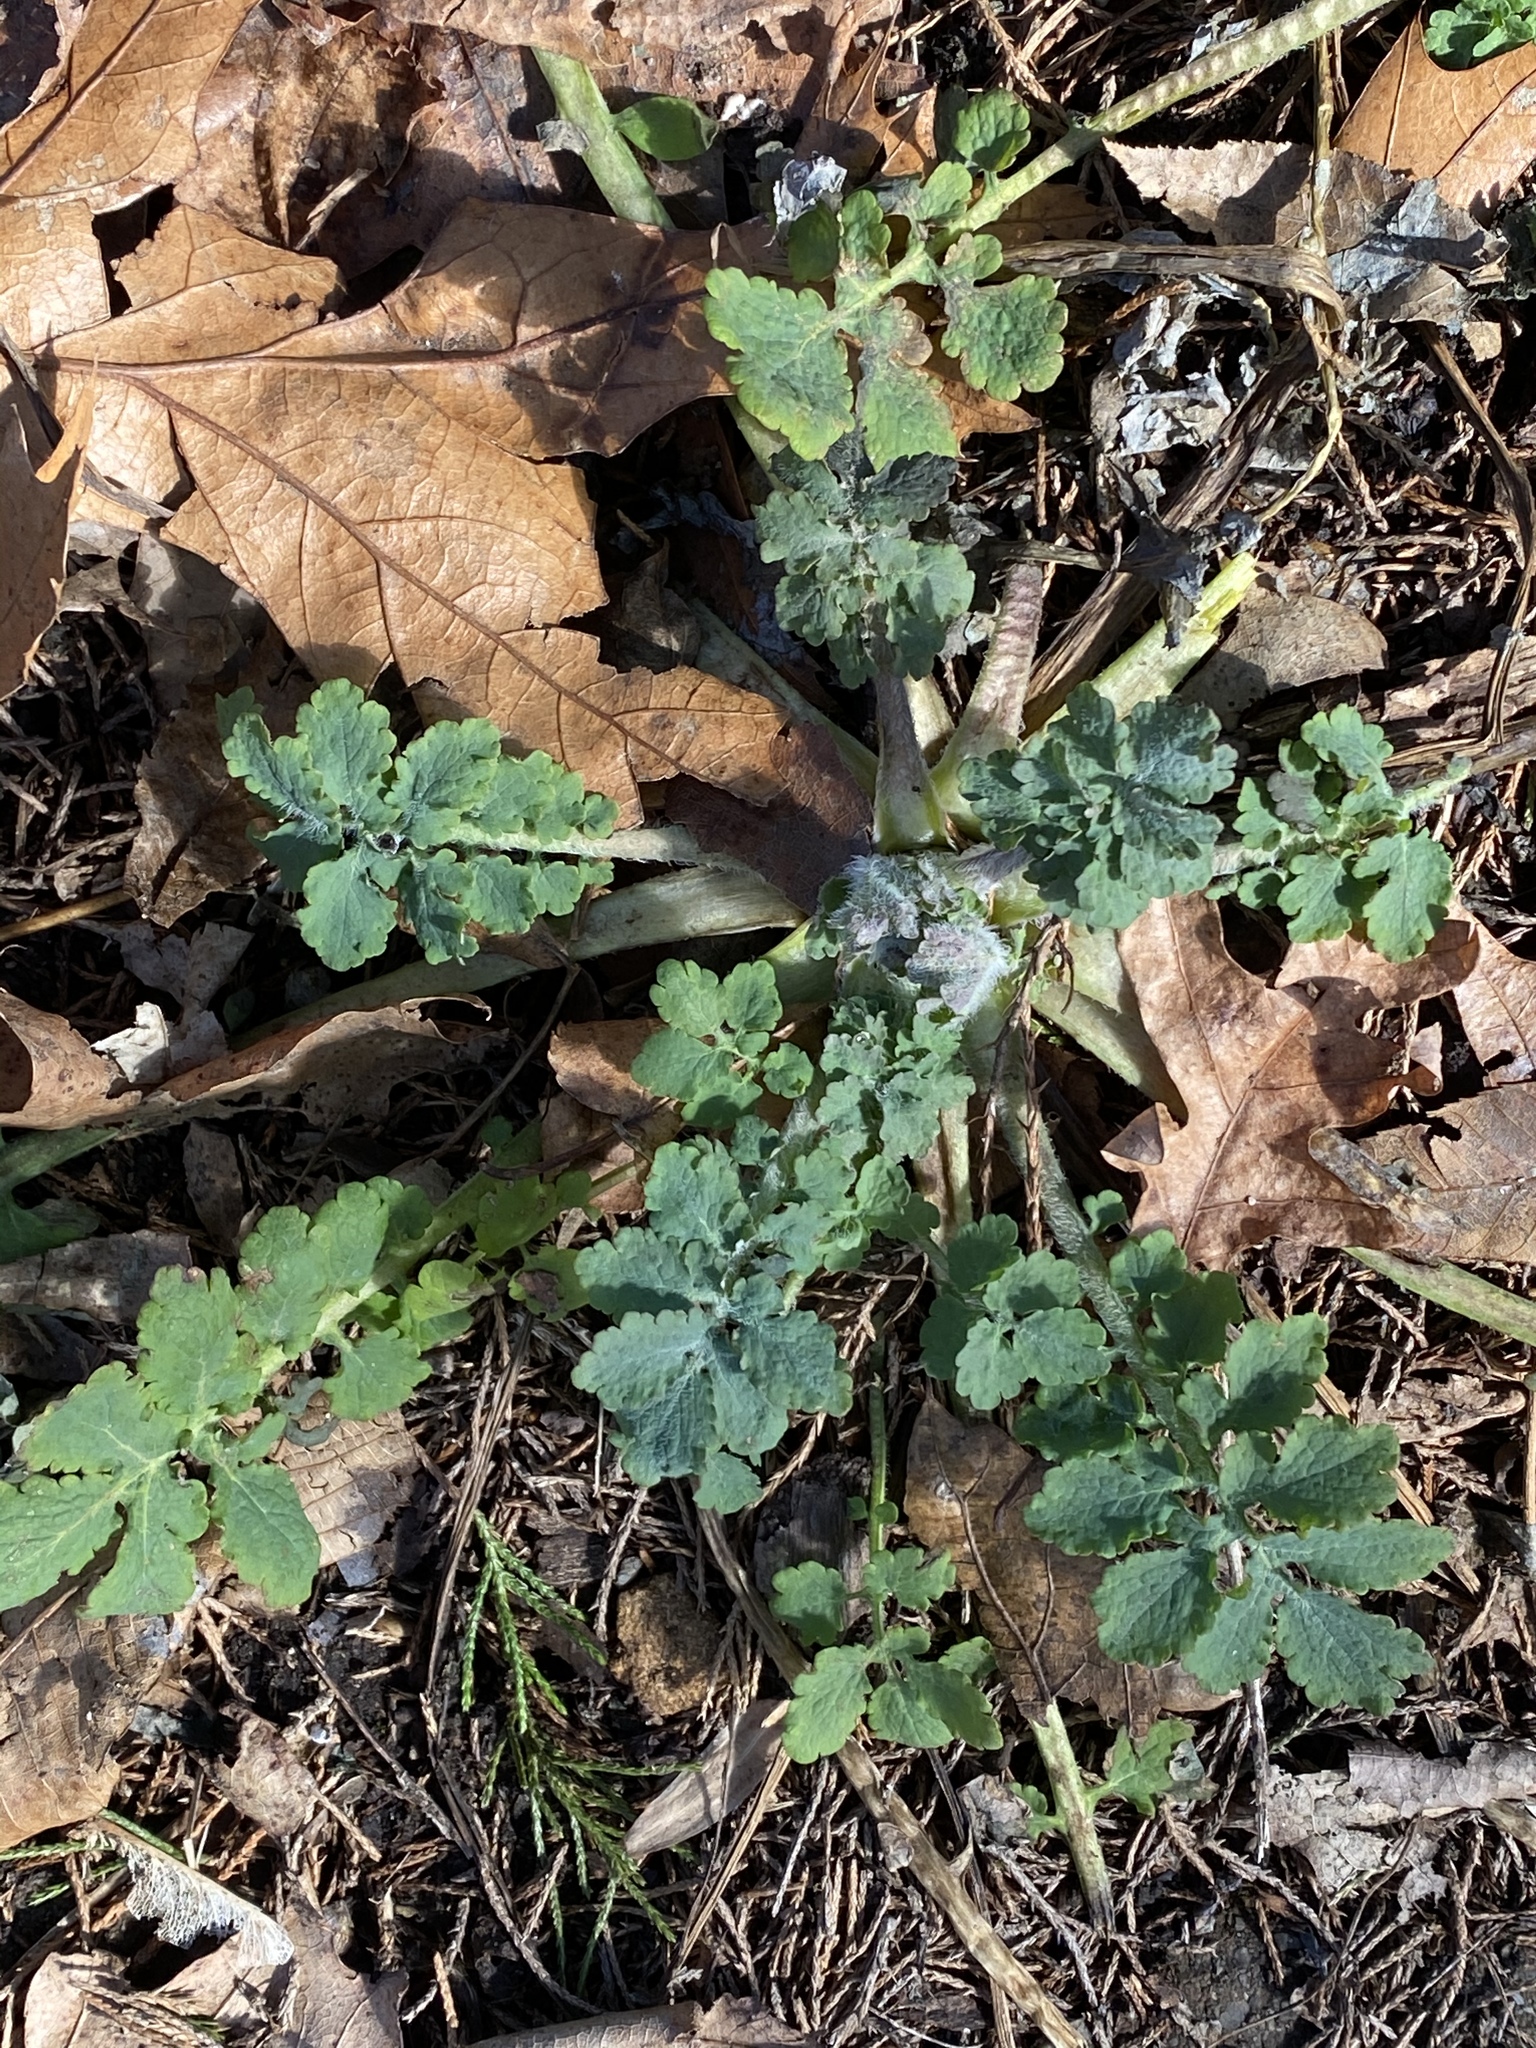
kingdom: Plantae
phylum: Tracheophyta
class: Magnoliopsida
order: Ranunculales
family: Papaveraceae
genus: Chelidonium
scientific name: Chelidonium majus
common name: Greater celandine
